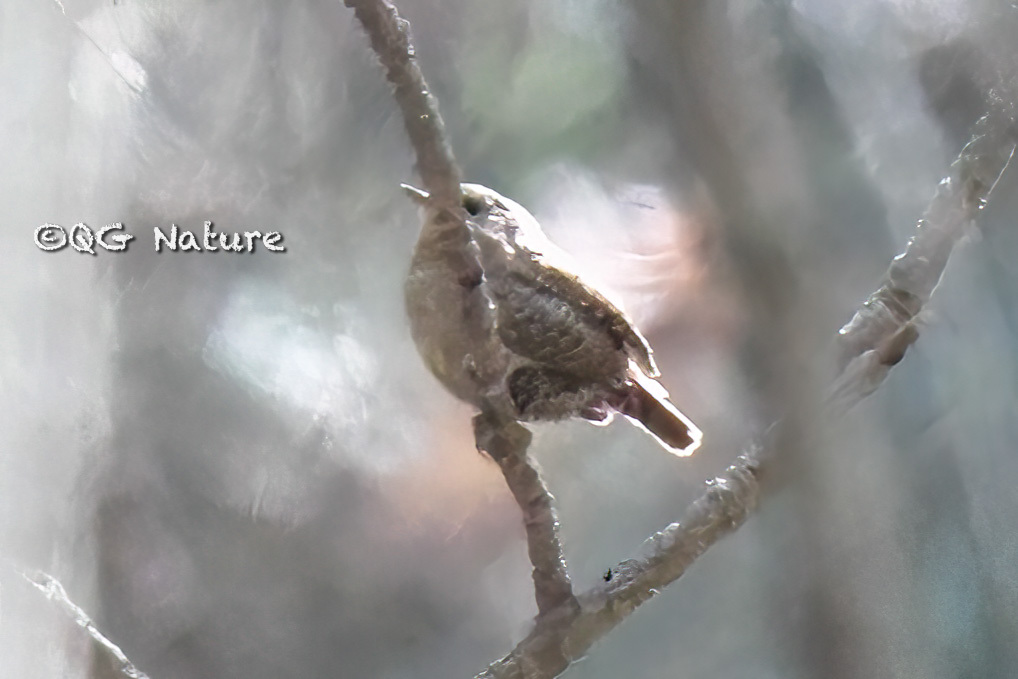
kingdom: Animalia
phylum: Chordata
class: Aves
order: Passeriformes
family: Troglodytidae
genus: Troglodytes
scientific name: Troglodytes troglodytes
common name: Eurasian wren
